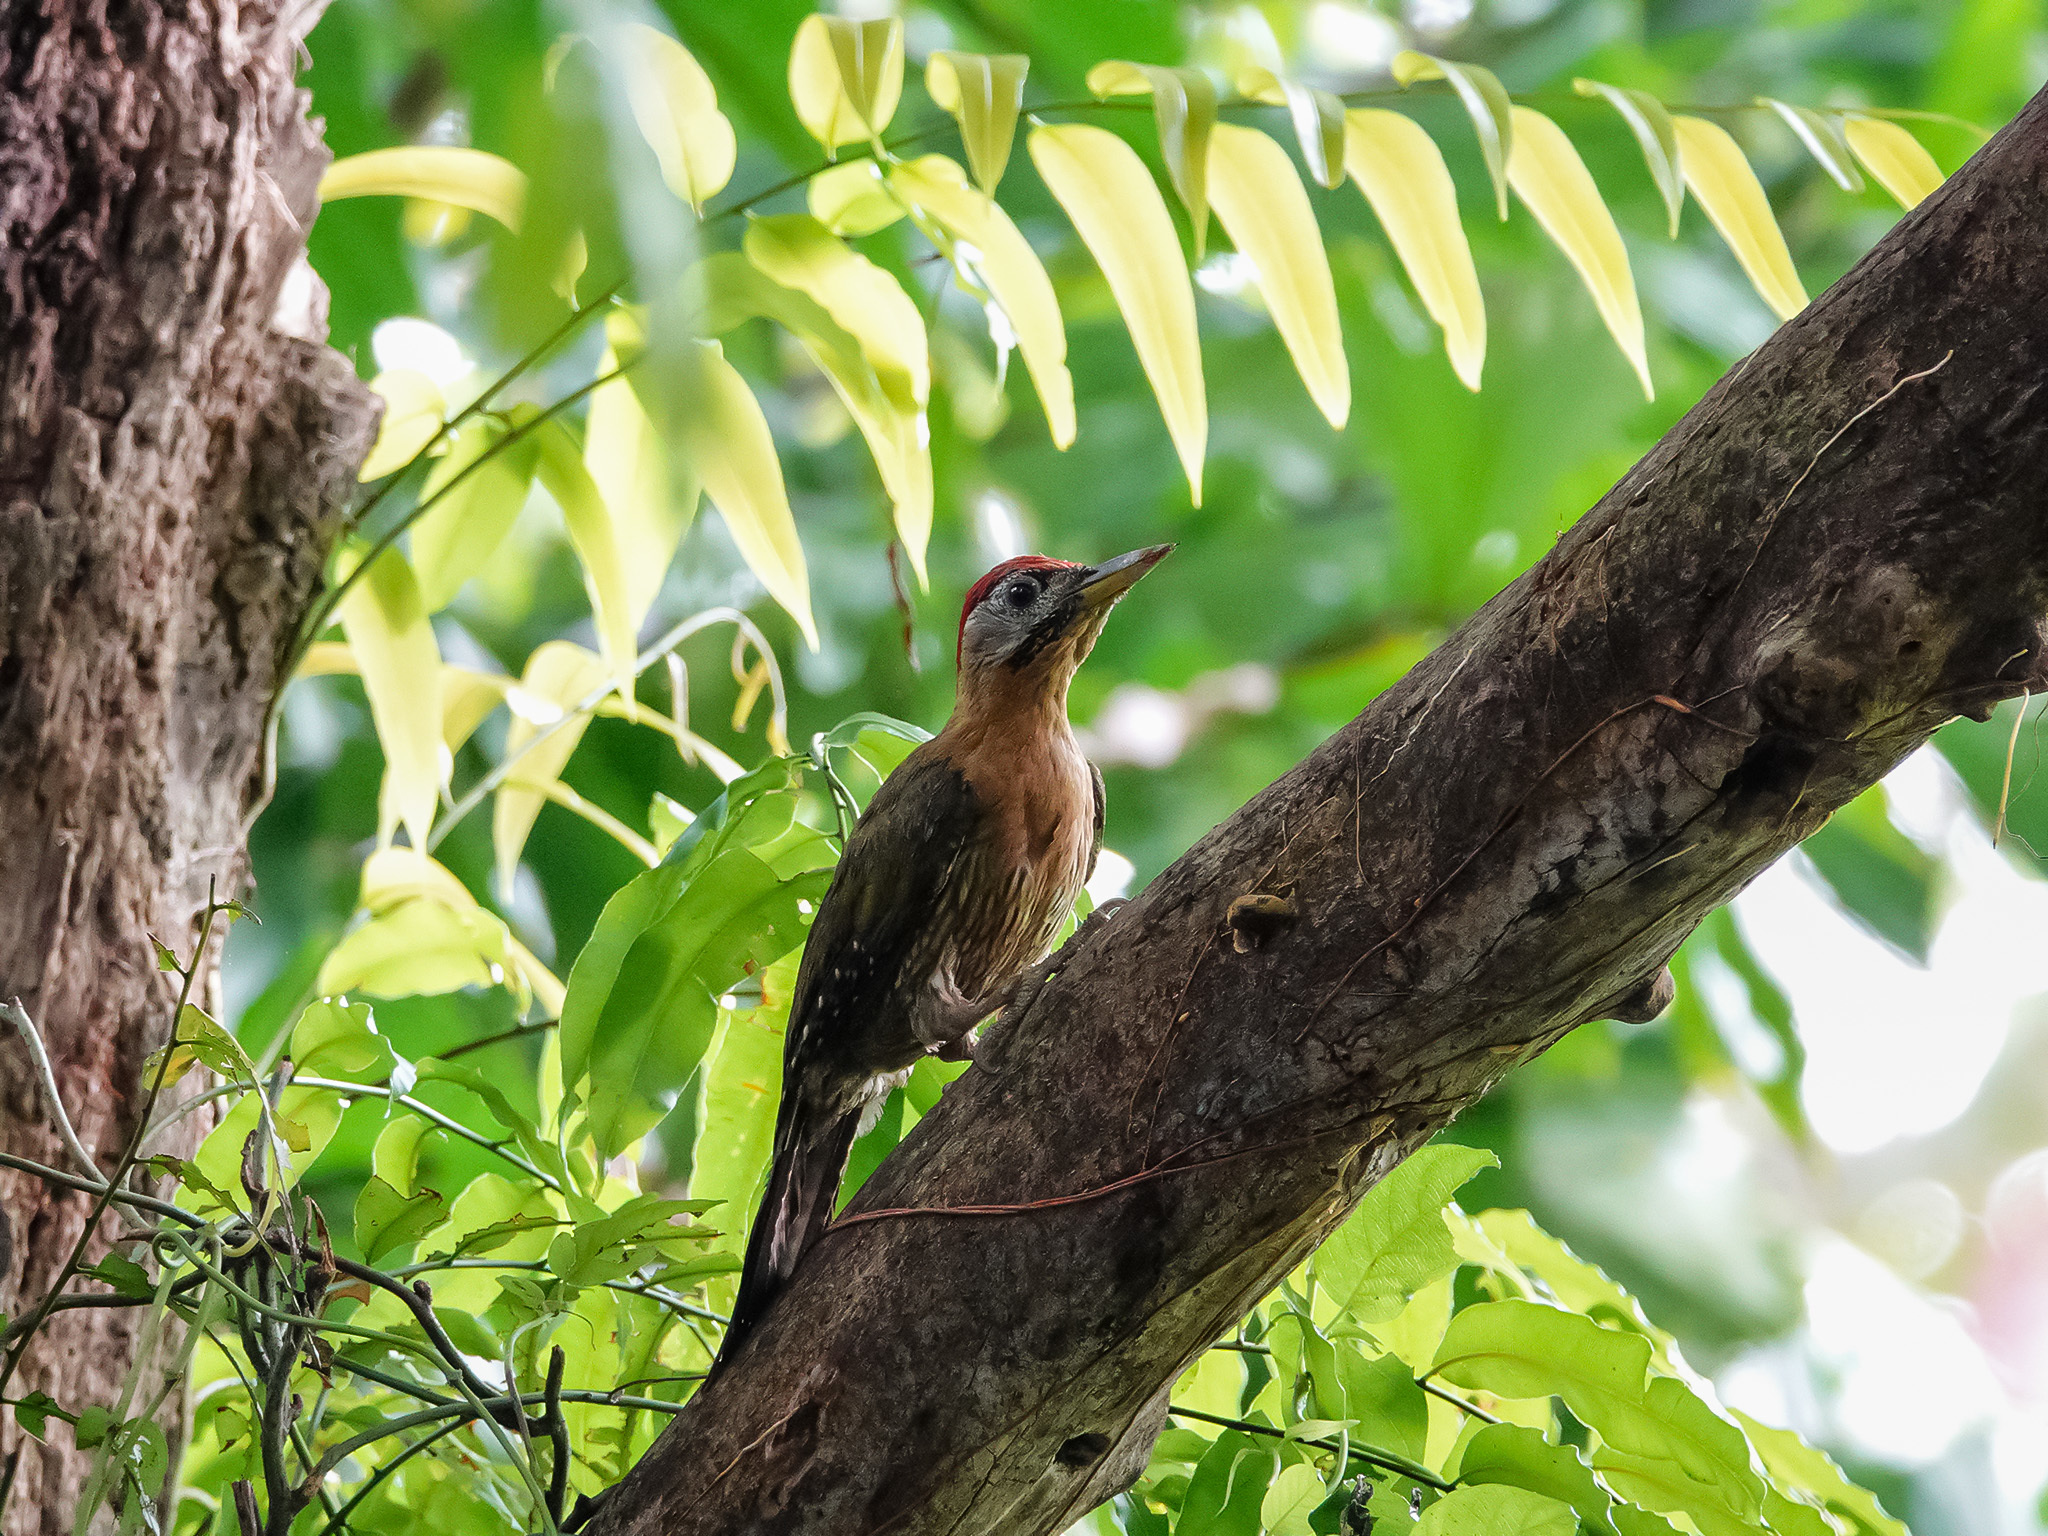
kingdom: Animalia
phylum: Chordata
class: Aves
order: Piciformes
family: Picidae
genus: Picus
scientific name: Picus vittatus
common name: Laced woodpecker
